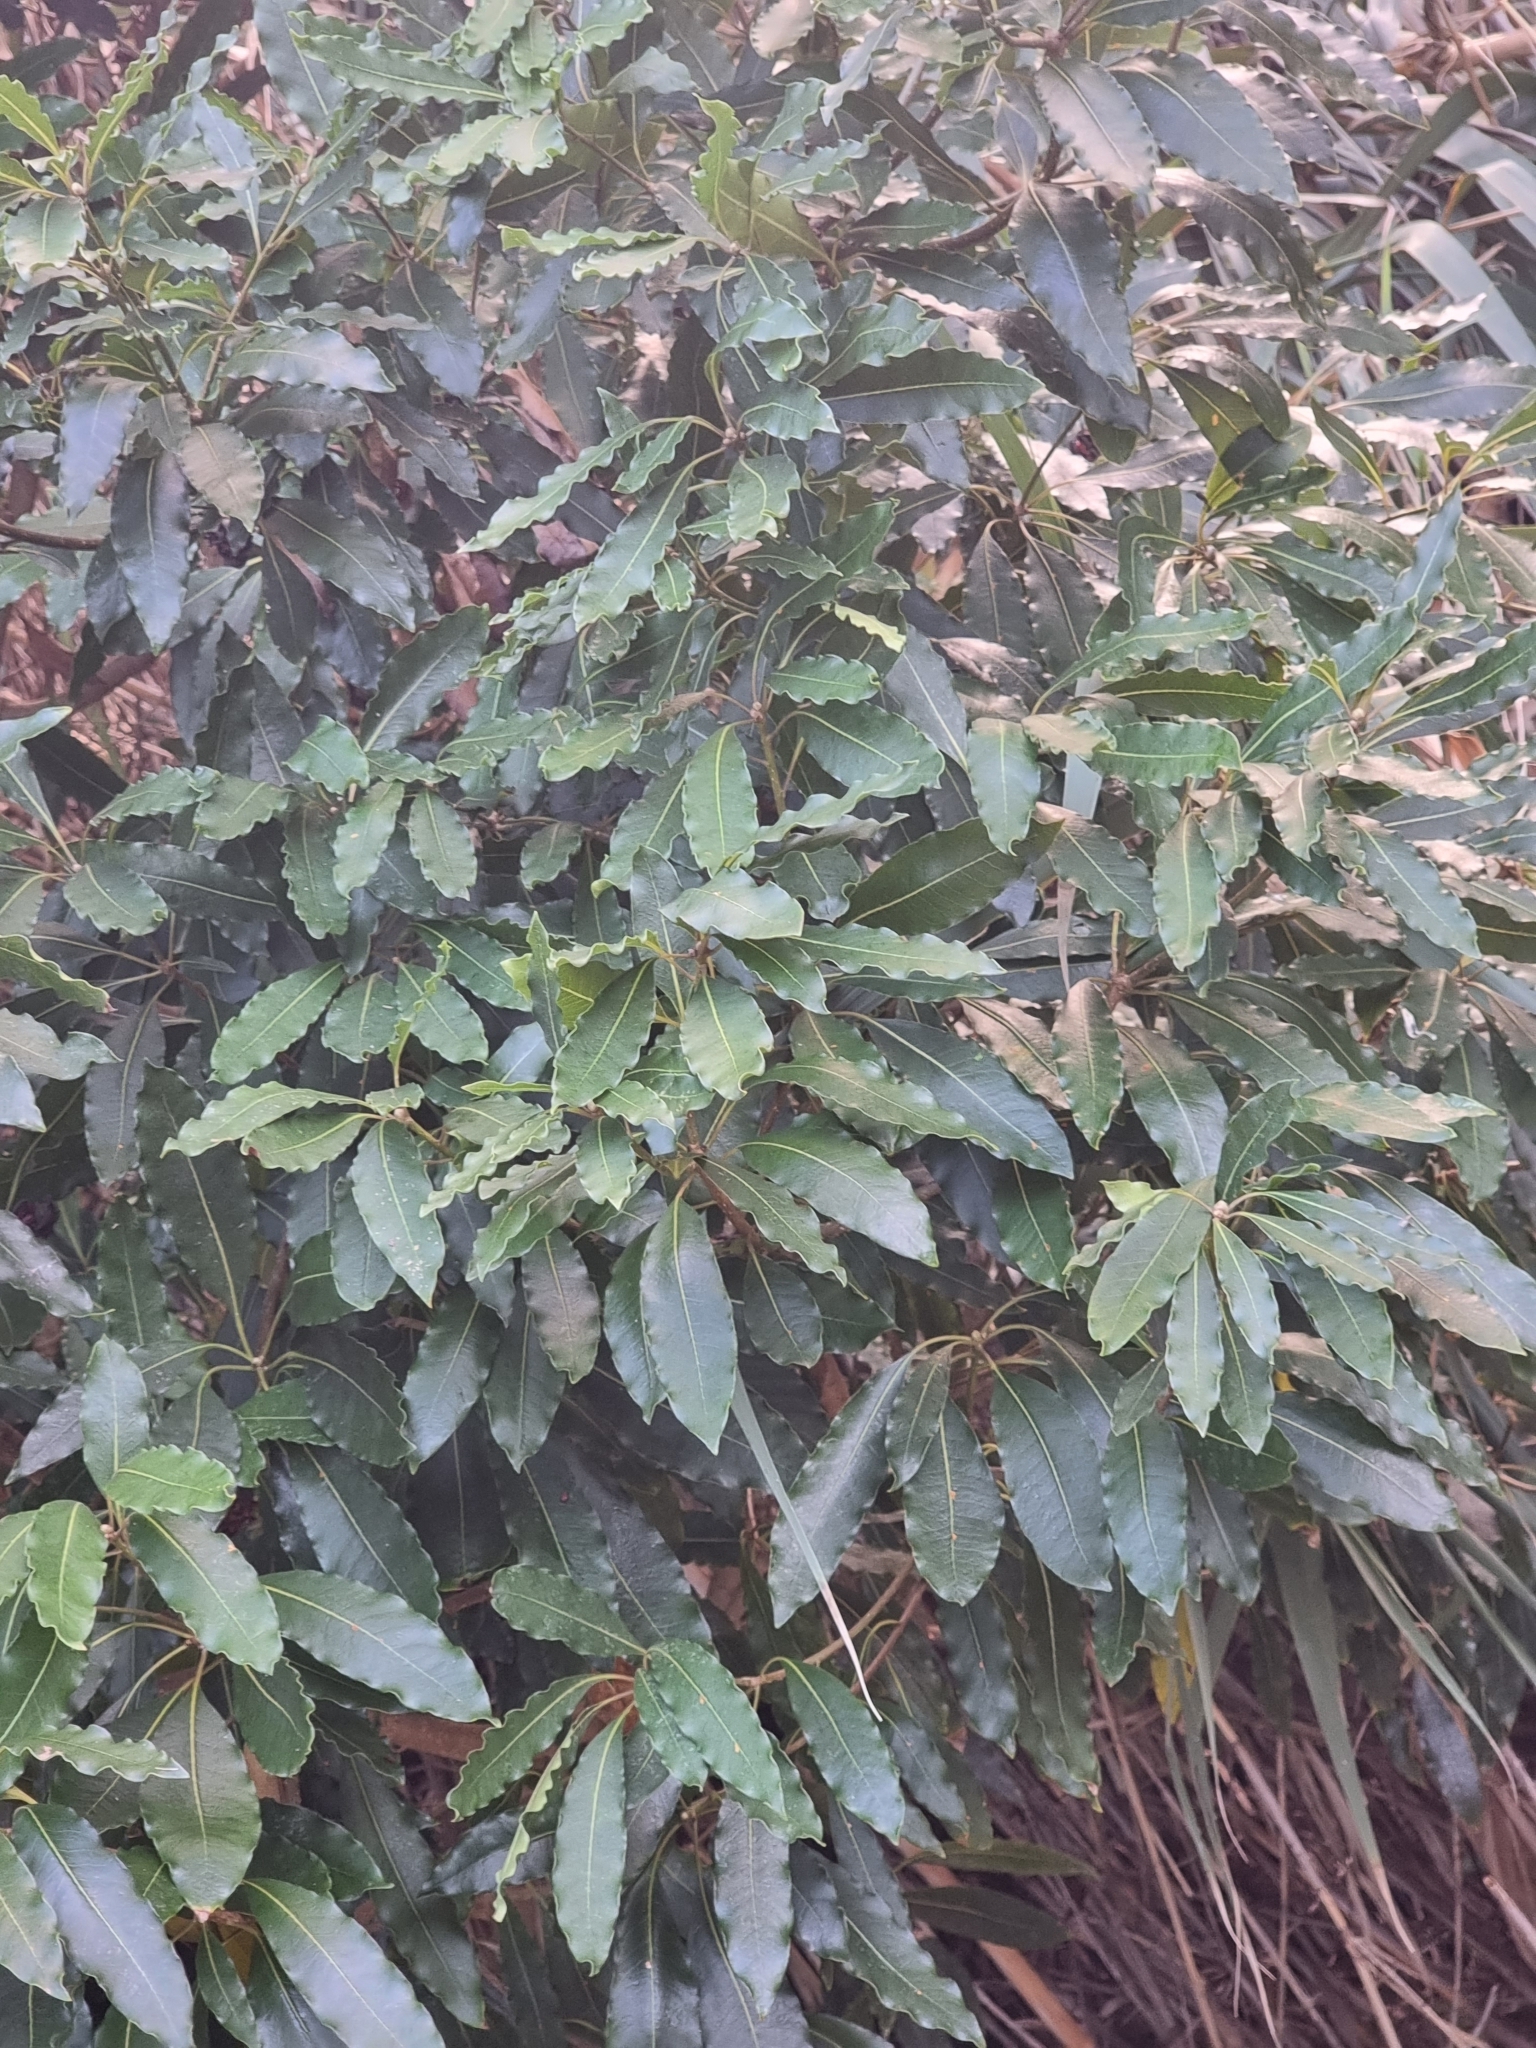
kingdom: Plantae
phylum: Tracheophyta
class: Magnoliopsida
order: Apiales
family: Pittosporaceae
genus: Pittosporum
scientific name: Pittosporum undulatum
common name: Australian cheesewood
